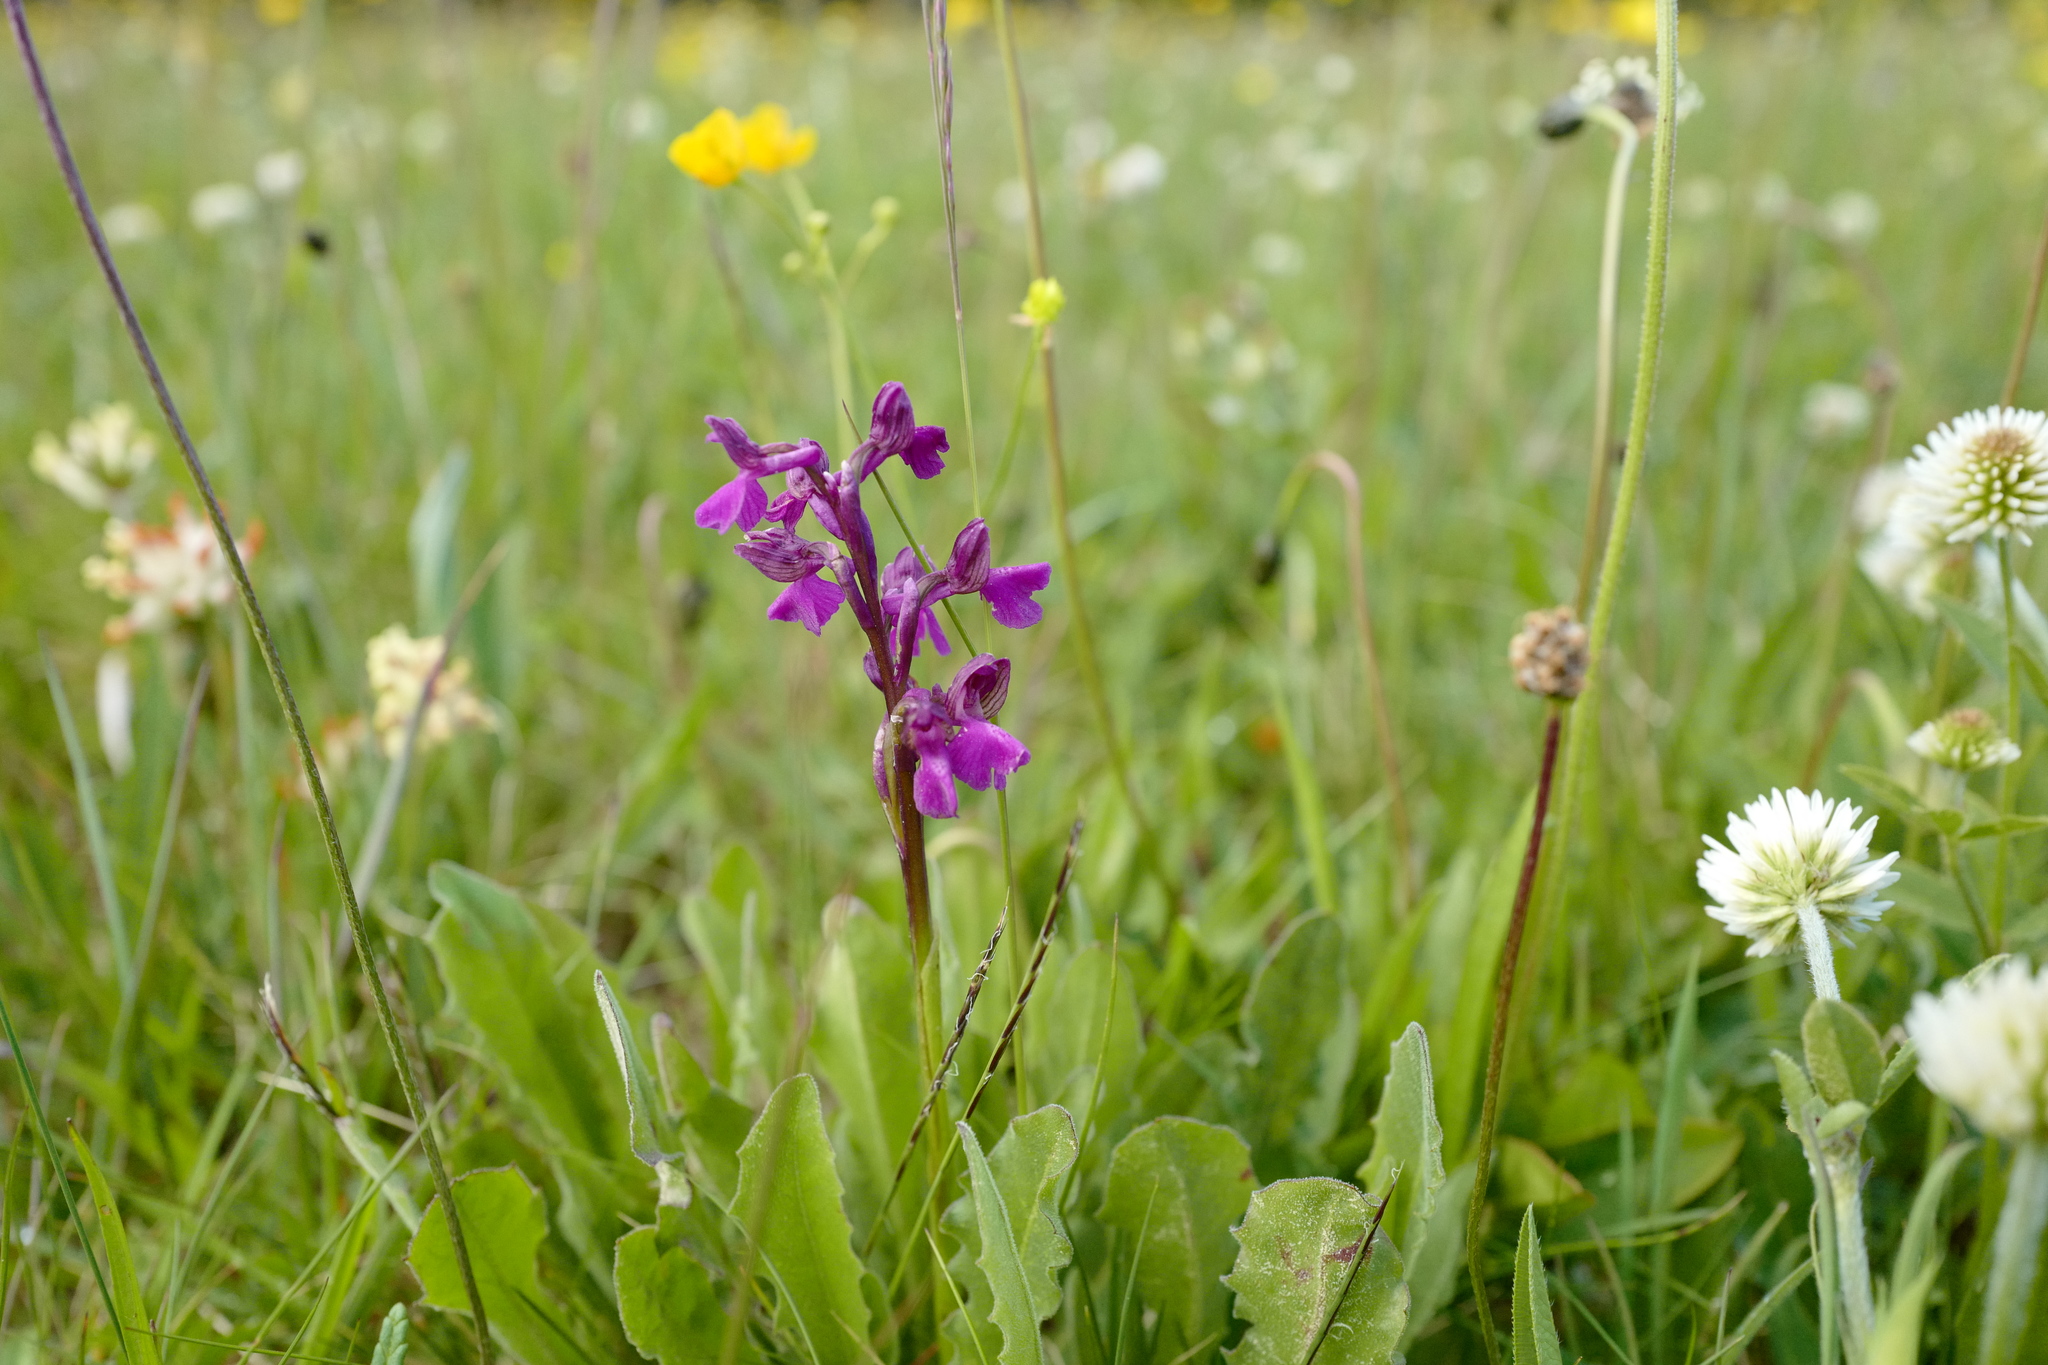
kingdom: Plantae
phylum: Tracheophyta
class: Liliopsida
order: Asparagales
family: Orchidaceae
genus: Anacamptis
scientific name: Anacamptis morio
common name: Green-winged orchid
